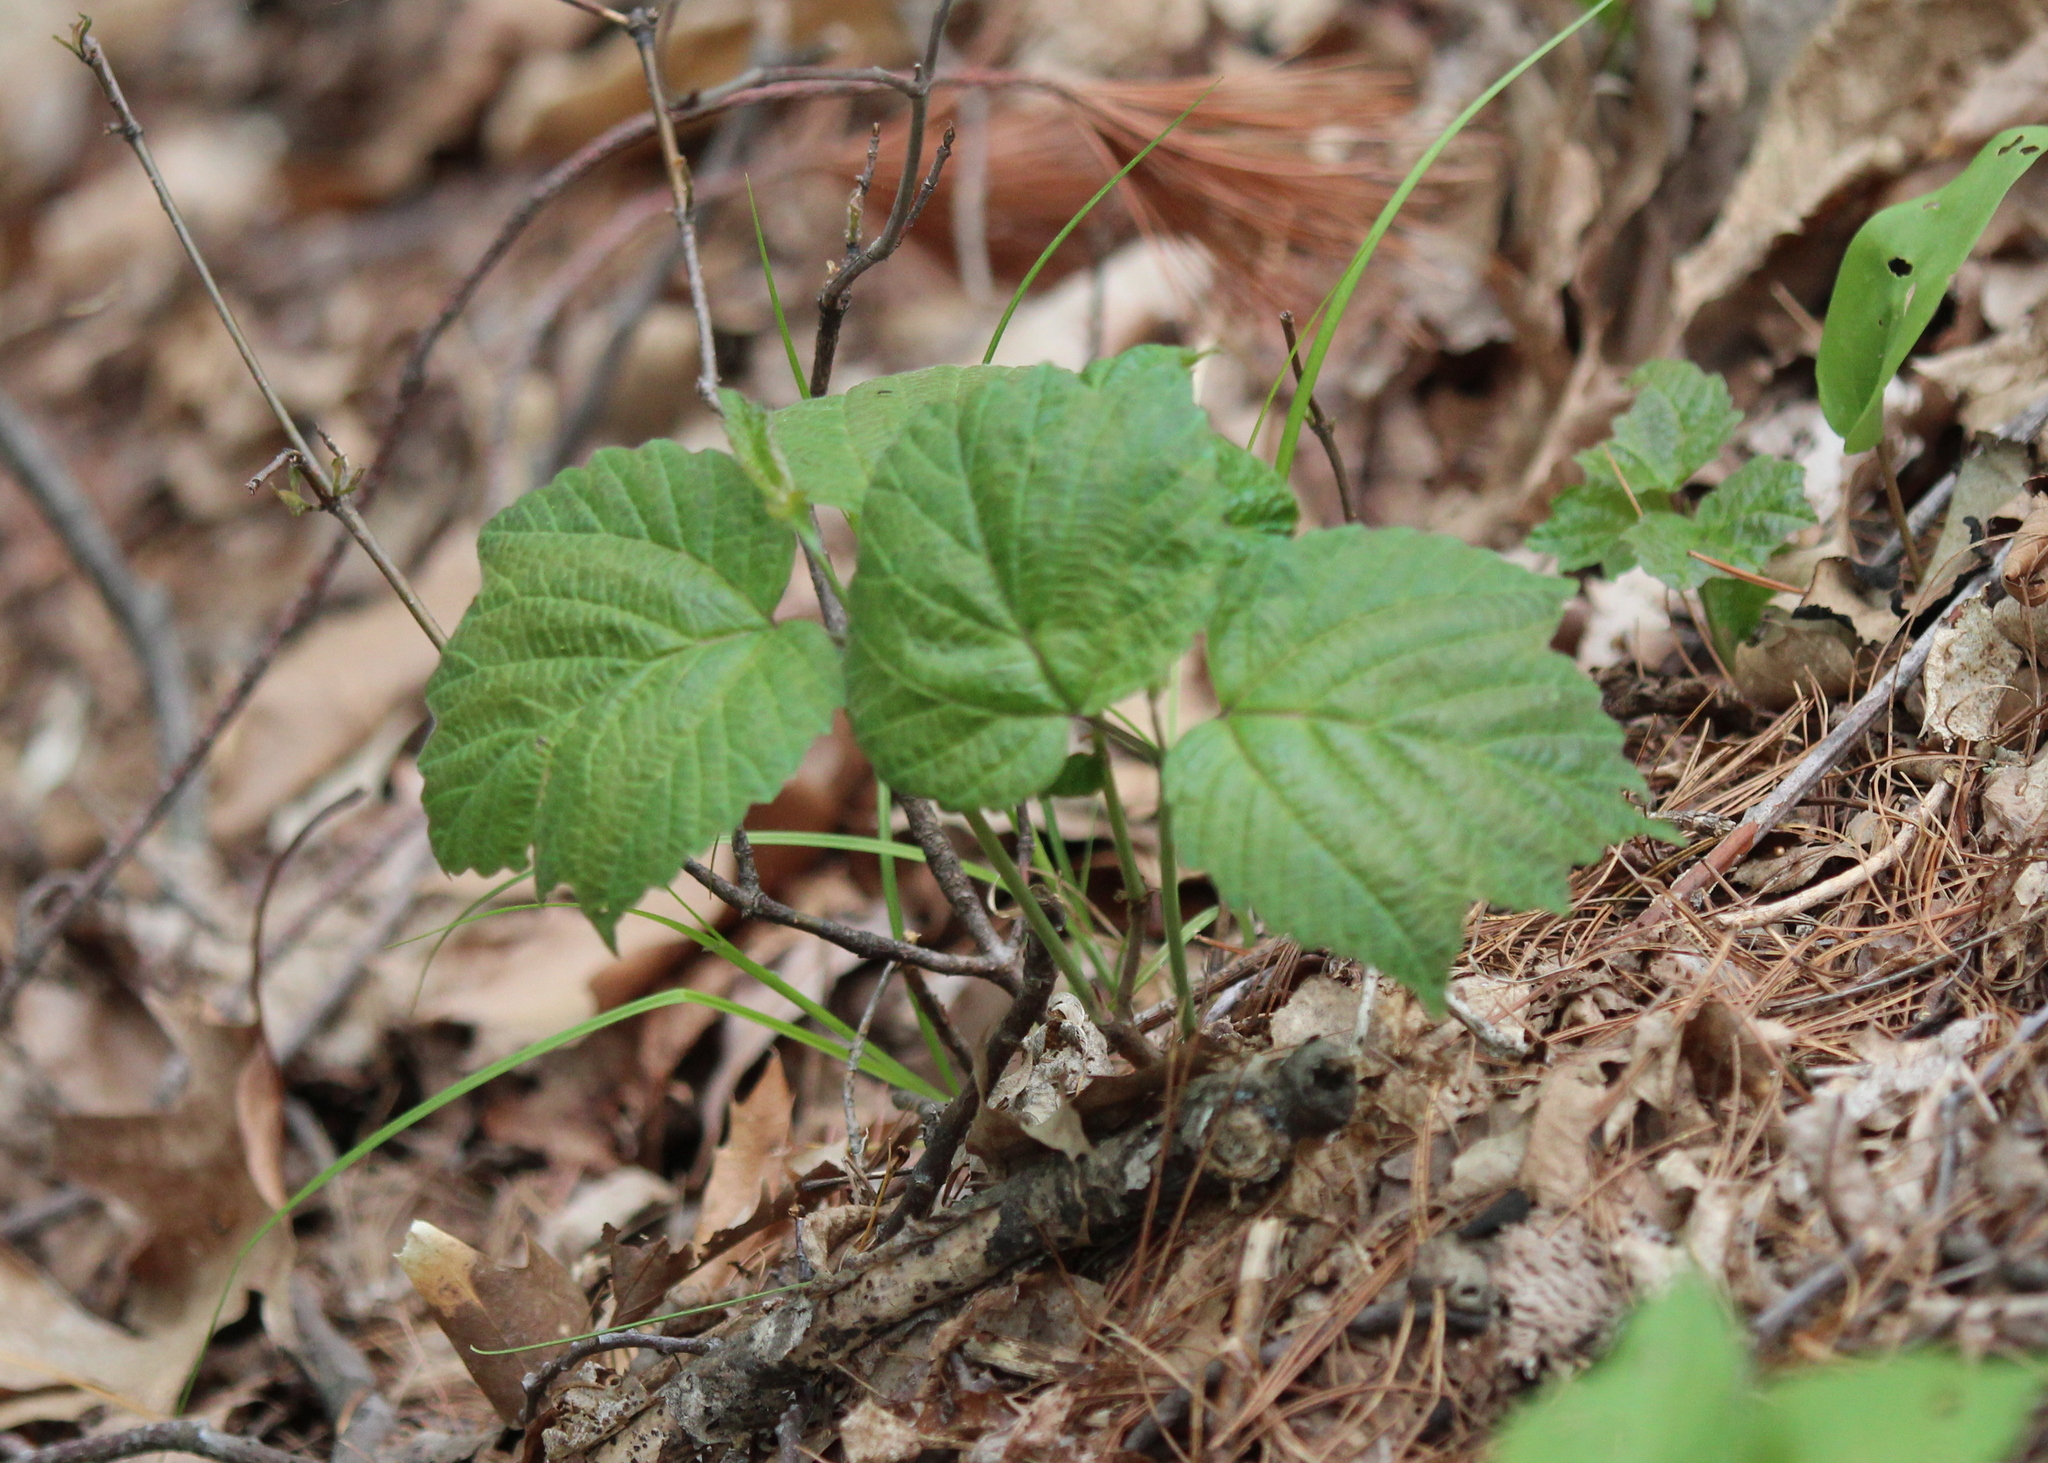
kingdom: Plantae
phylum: Tracheophyta
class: Magnoliopsida
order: Dipsacales
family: Viburnaceae
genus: Viburnum
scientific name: Viburnum acerifolium
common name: Dockmackie
